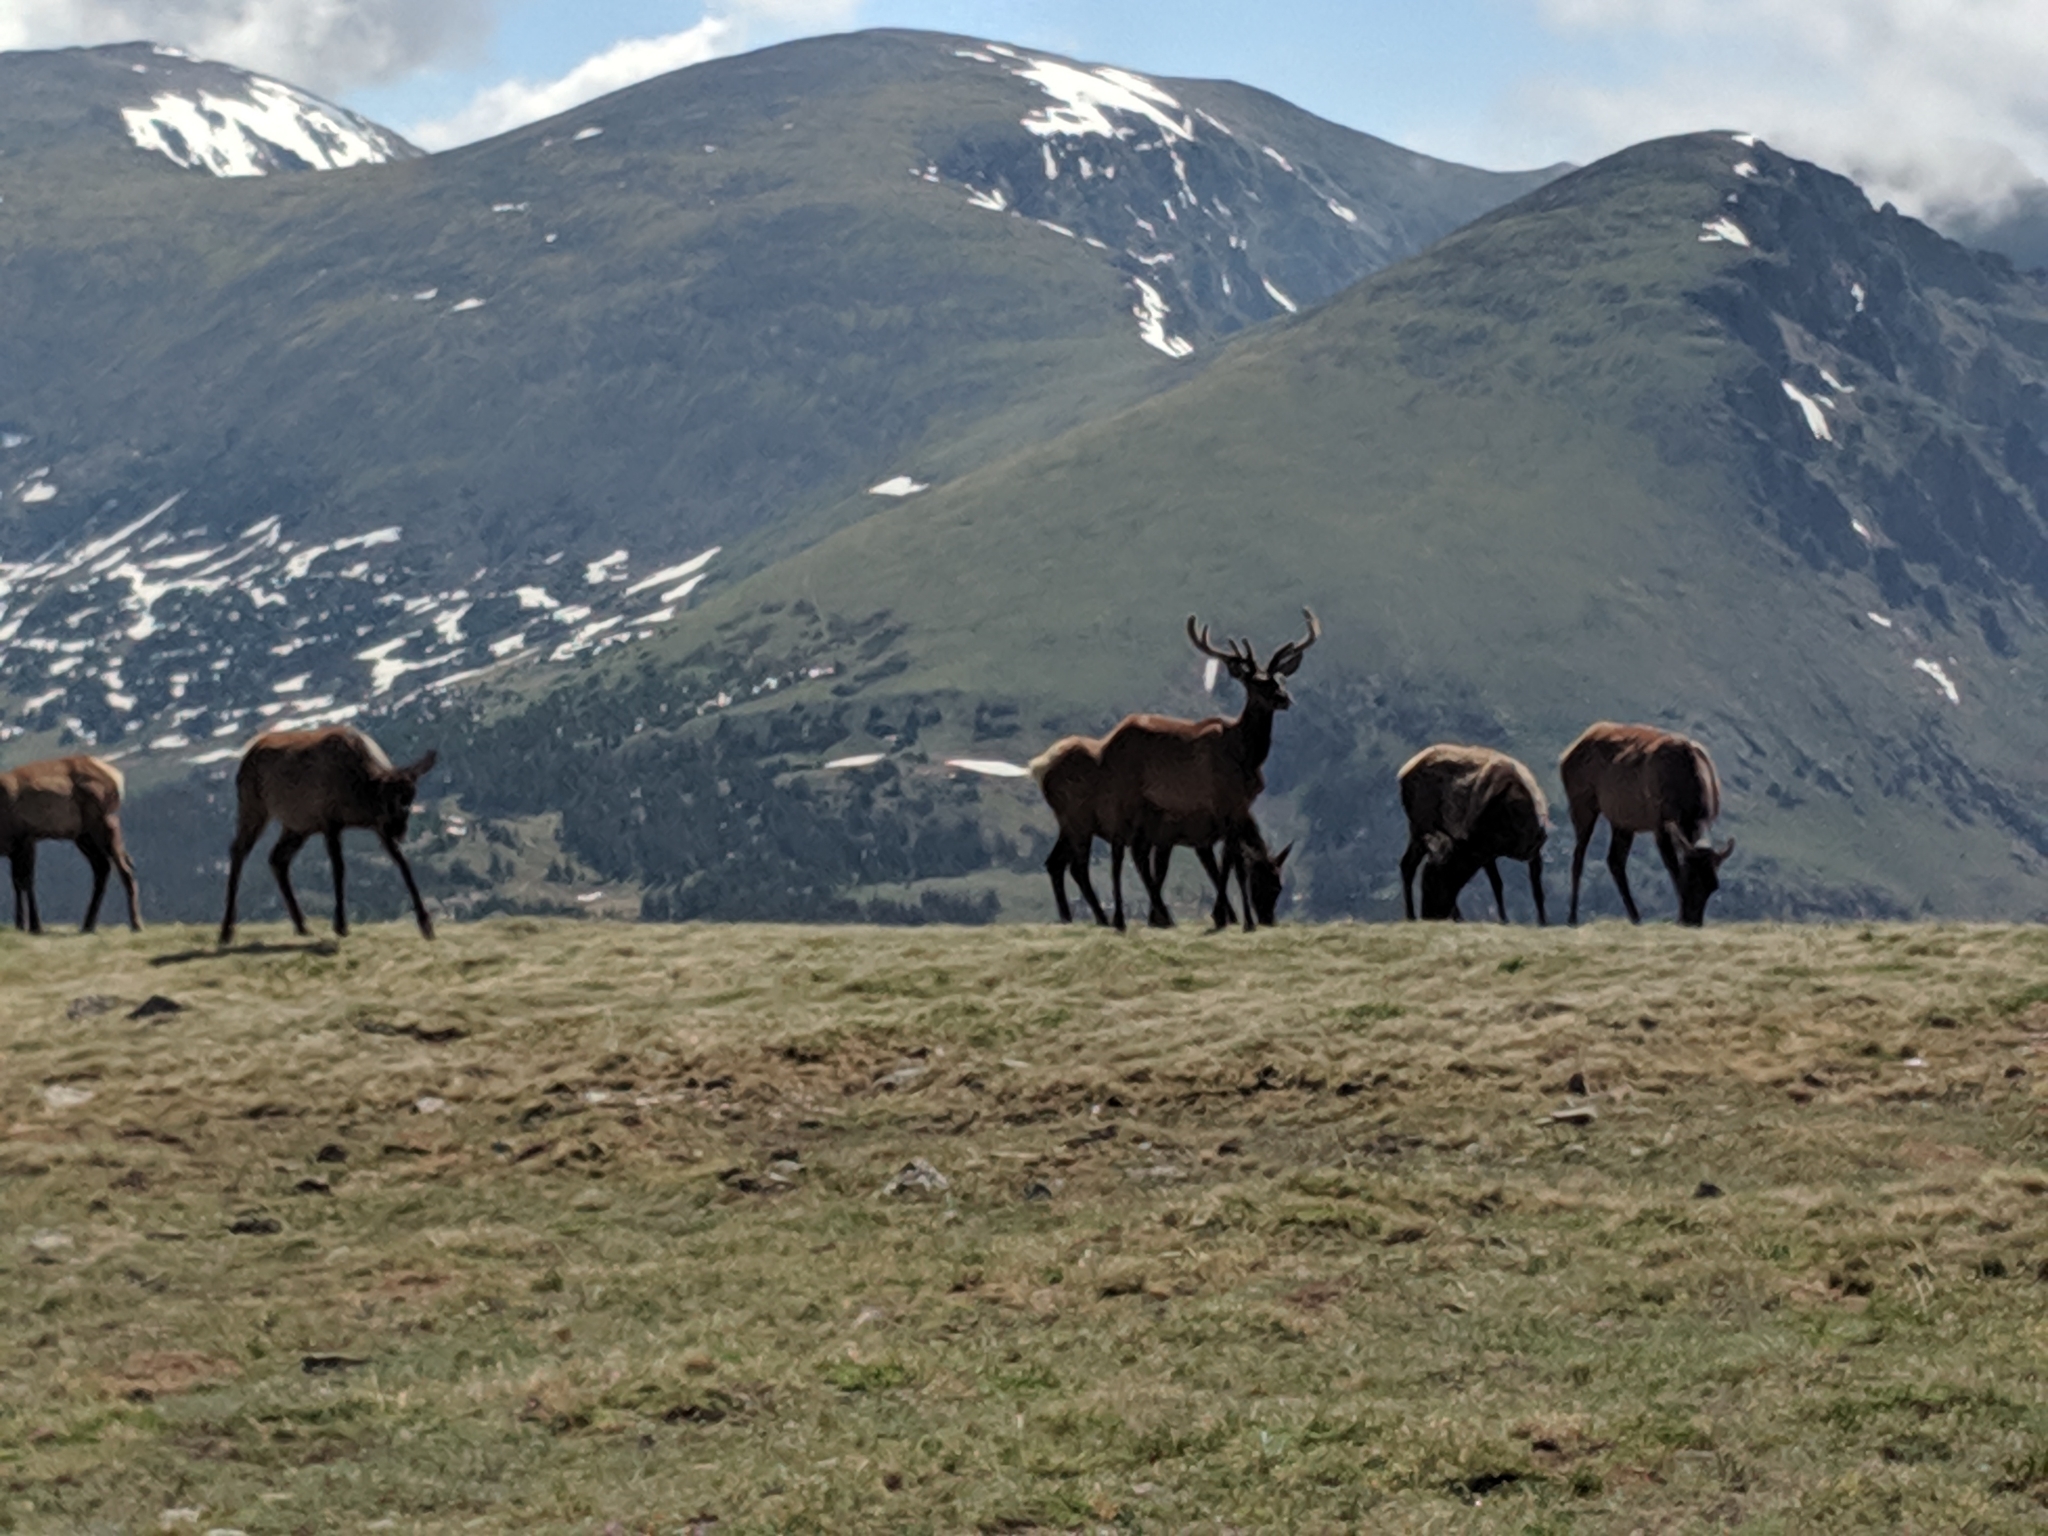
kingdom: Animalia
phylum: Chordata
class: Mammalia
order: Artiodactyla
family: Cervidae
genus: Cervus
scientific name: Cervus elaphus
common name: Red deer
